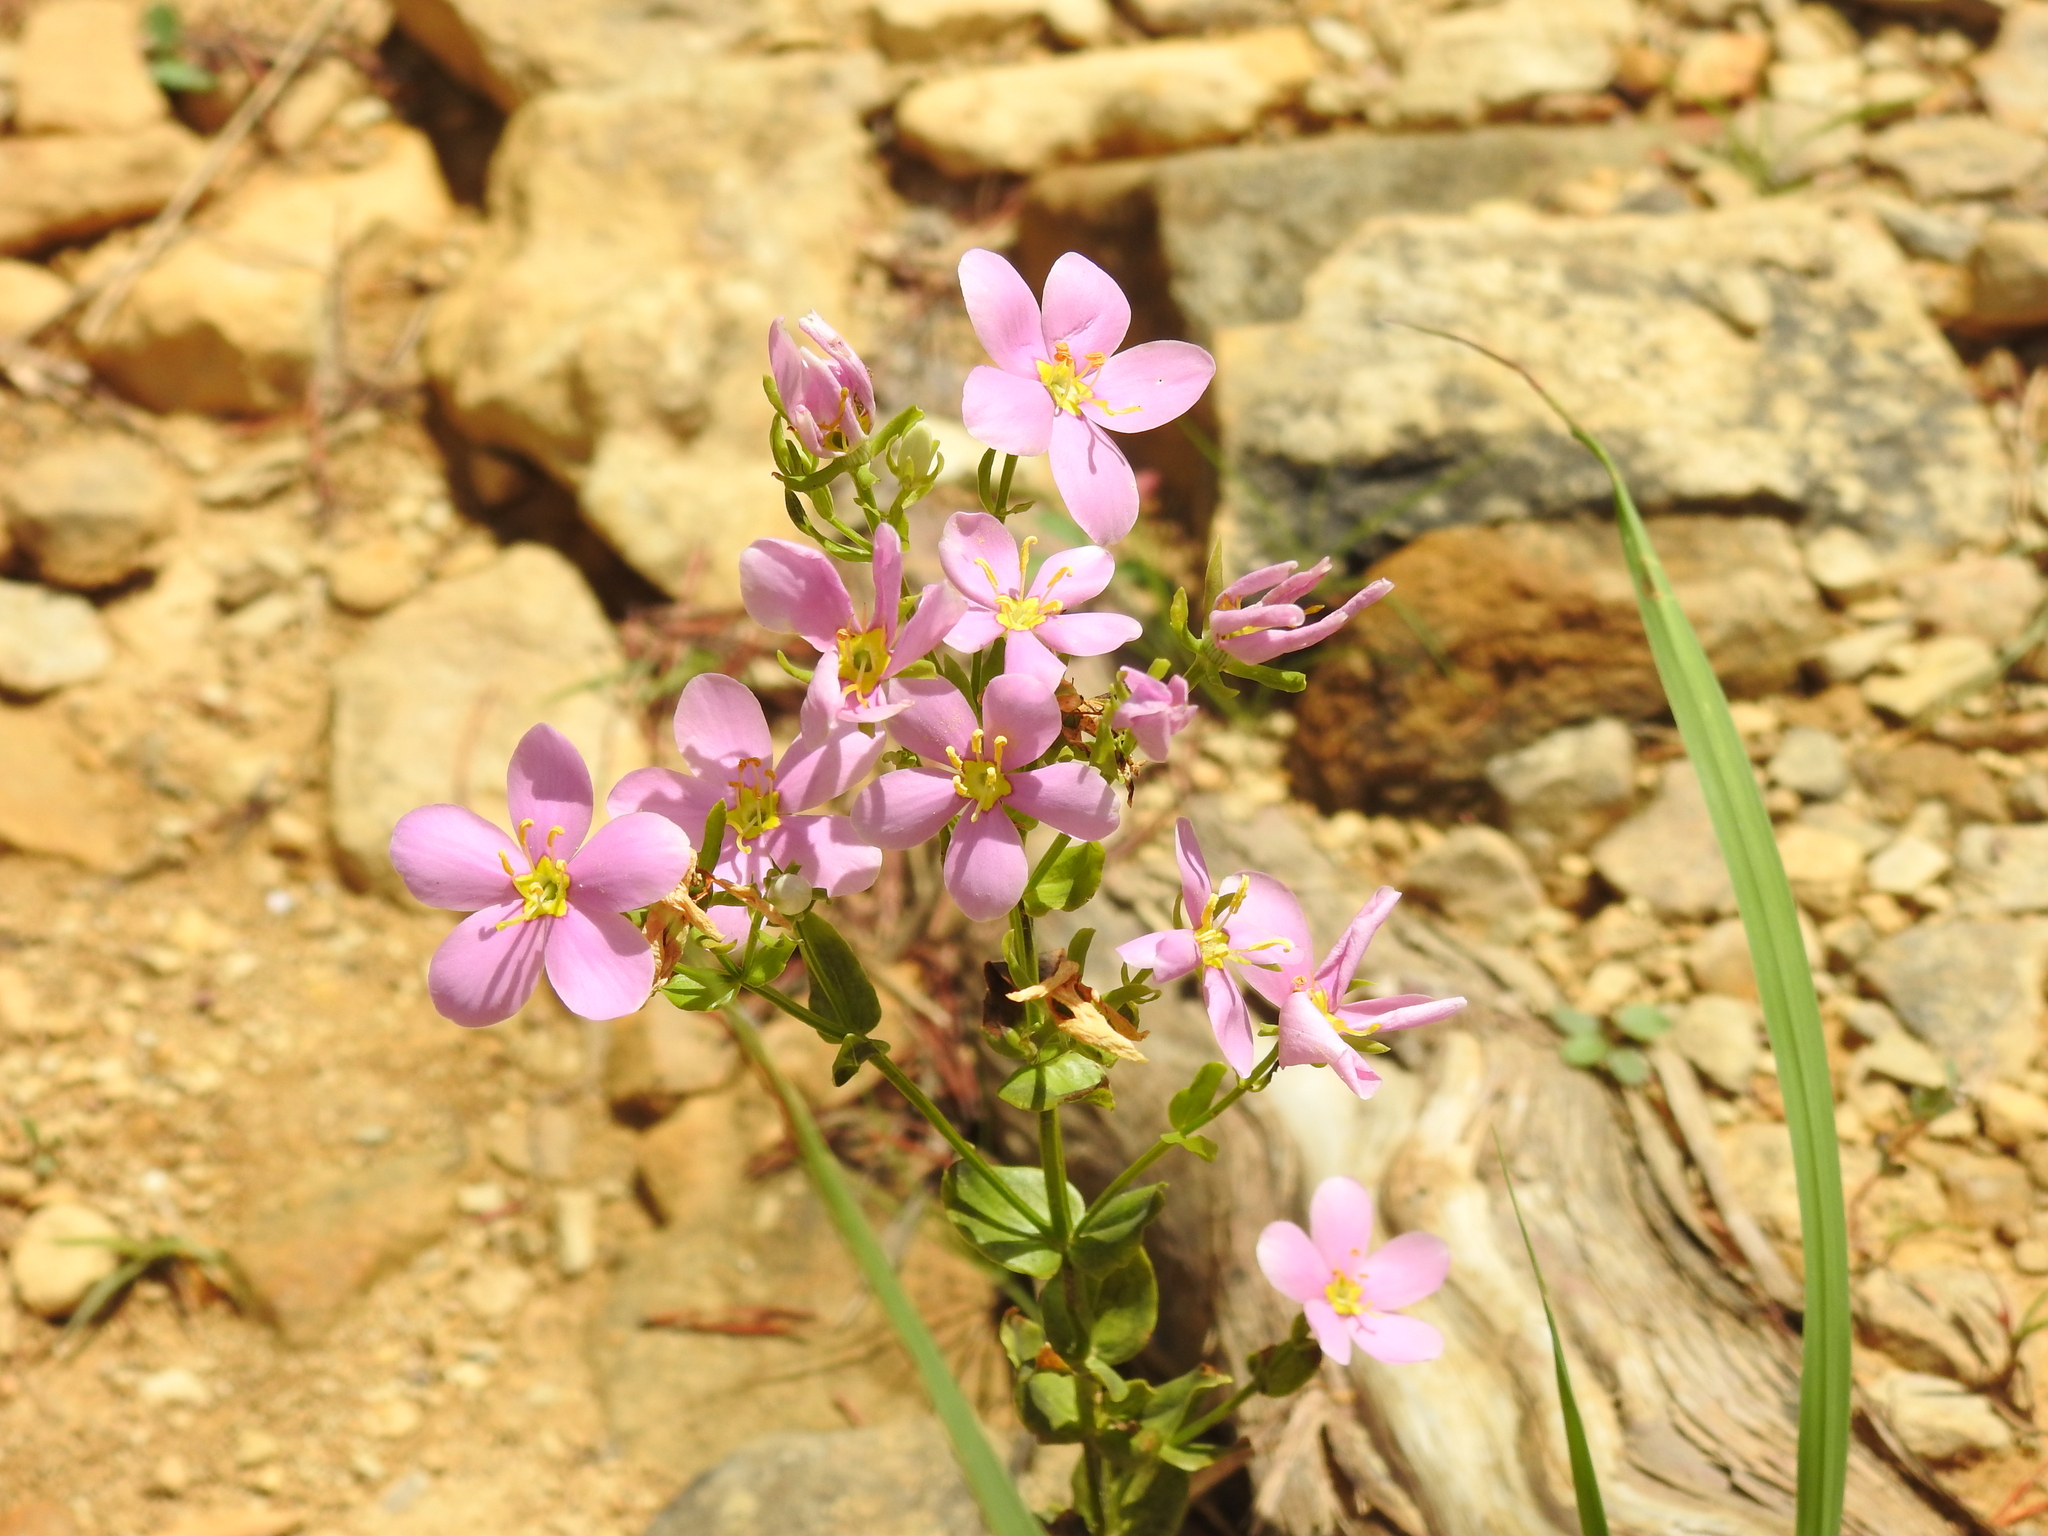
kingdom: Plantae
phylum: Tracheophyta
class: Magnoliopsida
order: Gentianales
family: Gentianaceae
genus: Sabatia
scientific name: Sabatia angularis
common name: Rose-pink
